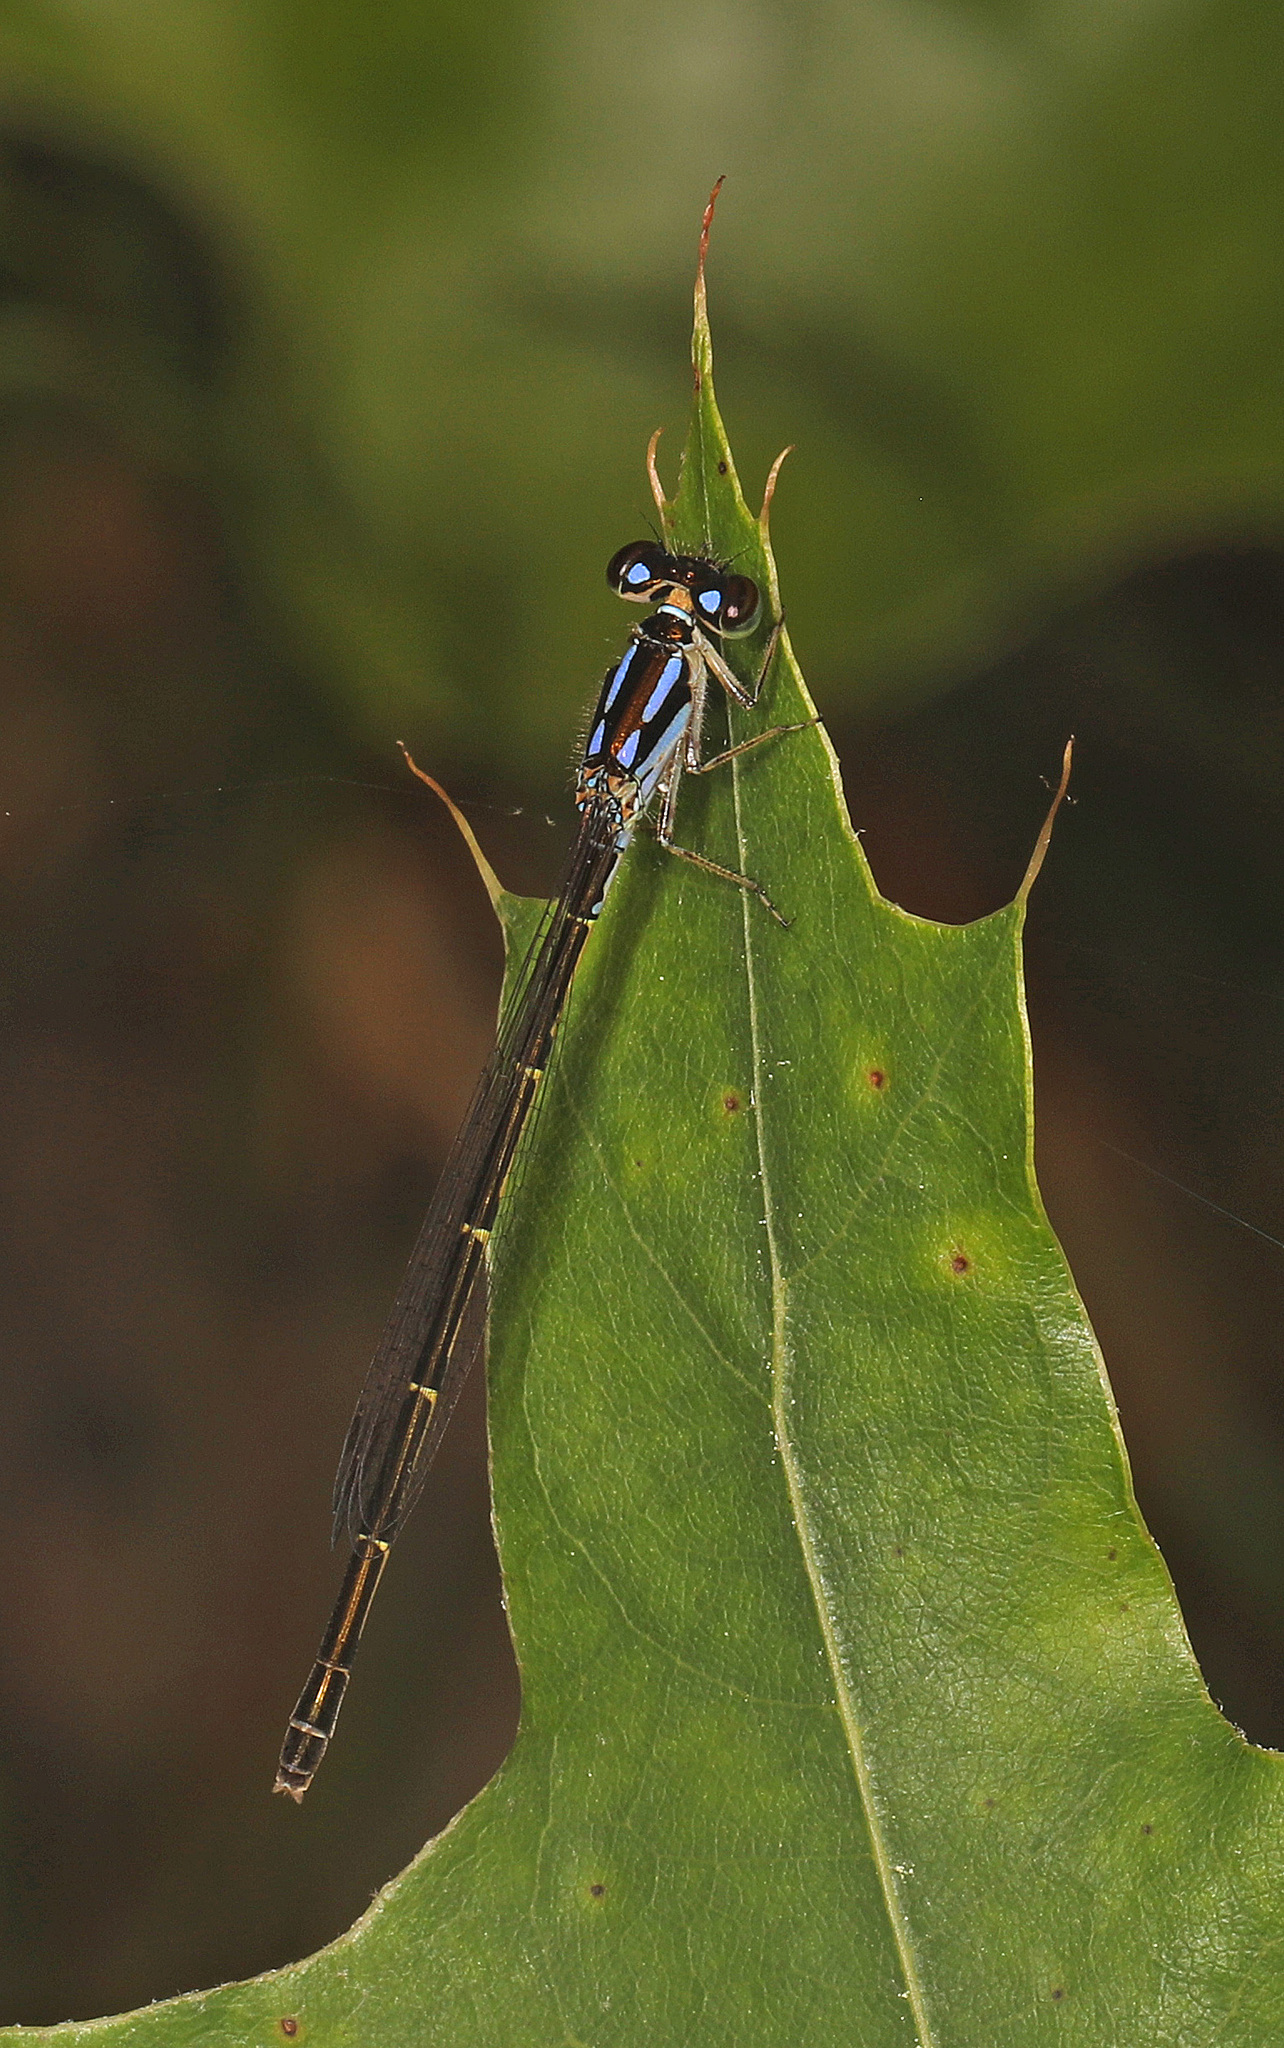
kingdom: Animalia
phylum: Arthropoda
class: Insecta
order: Odonata
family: Coenagrionidae
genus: Ischnura
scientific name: Ischnura posita
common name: Fragile forktail
